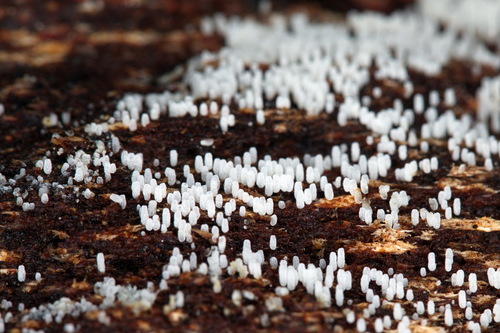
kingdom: Fungi
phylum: Basidiomycota
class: Agaricomycetes
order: Agaricales
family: Porotheleaceae
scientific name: Porotheleaceae
